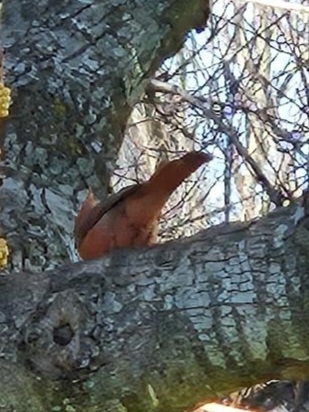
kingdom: Animalia
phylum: Chordata
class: Aves
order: Passeriformes
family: Cardinalidae
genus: Cardinalis
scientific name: Cardinalis cardinalis
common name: Northern cardinal
